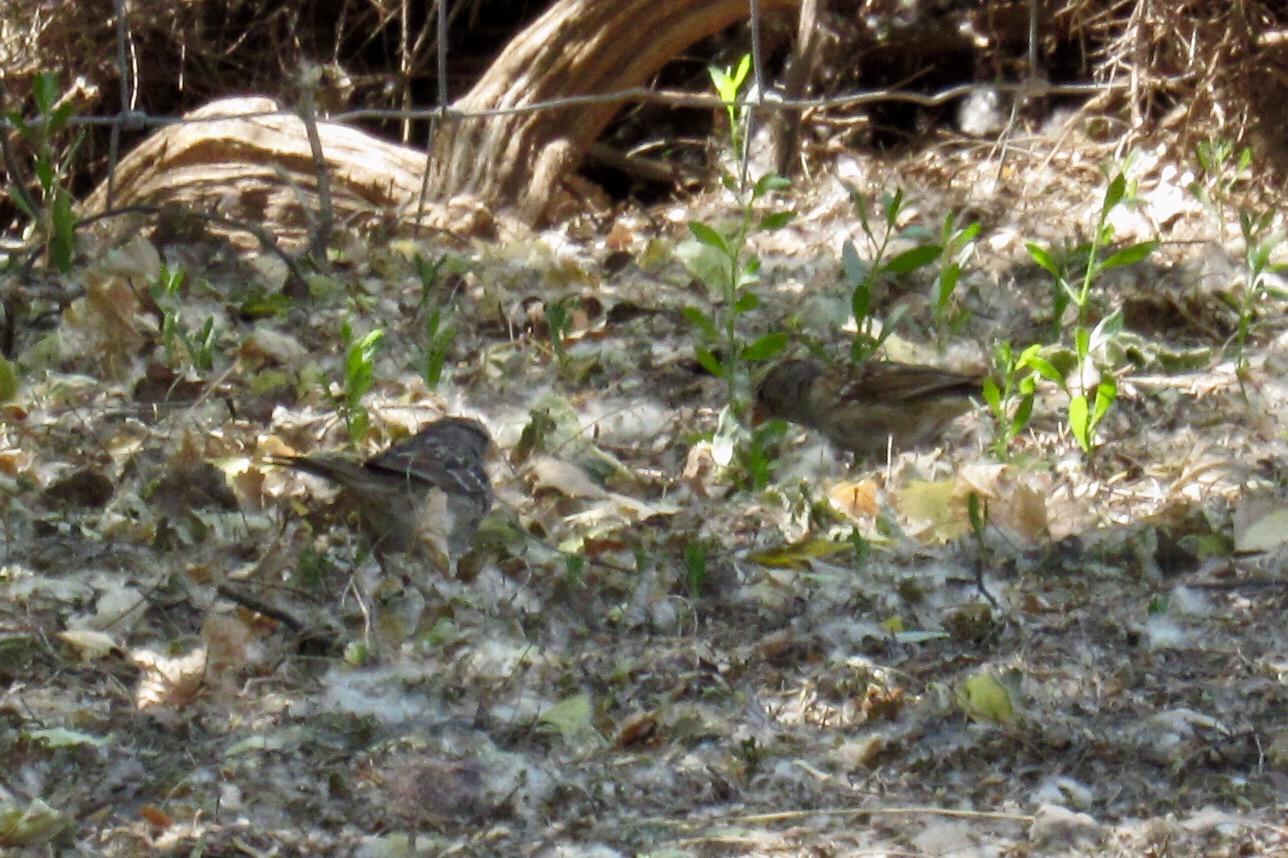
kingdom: Animalia
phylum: Chordata
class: Aves
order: Passeriformes
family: Passerellidae
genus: Zonotrichia
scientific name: Zonotrichia leucophrys
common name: White-crowned sparrow
